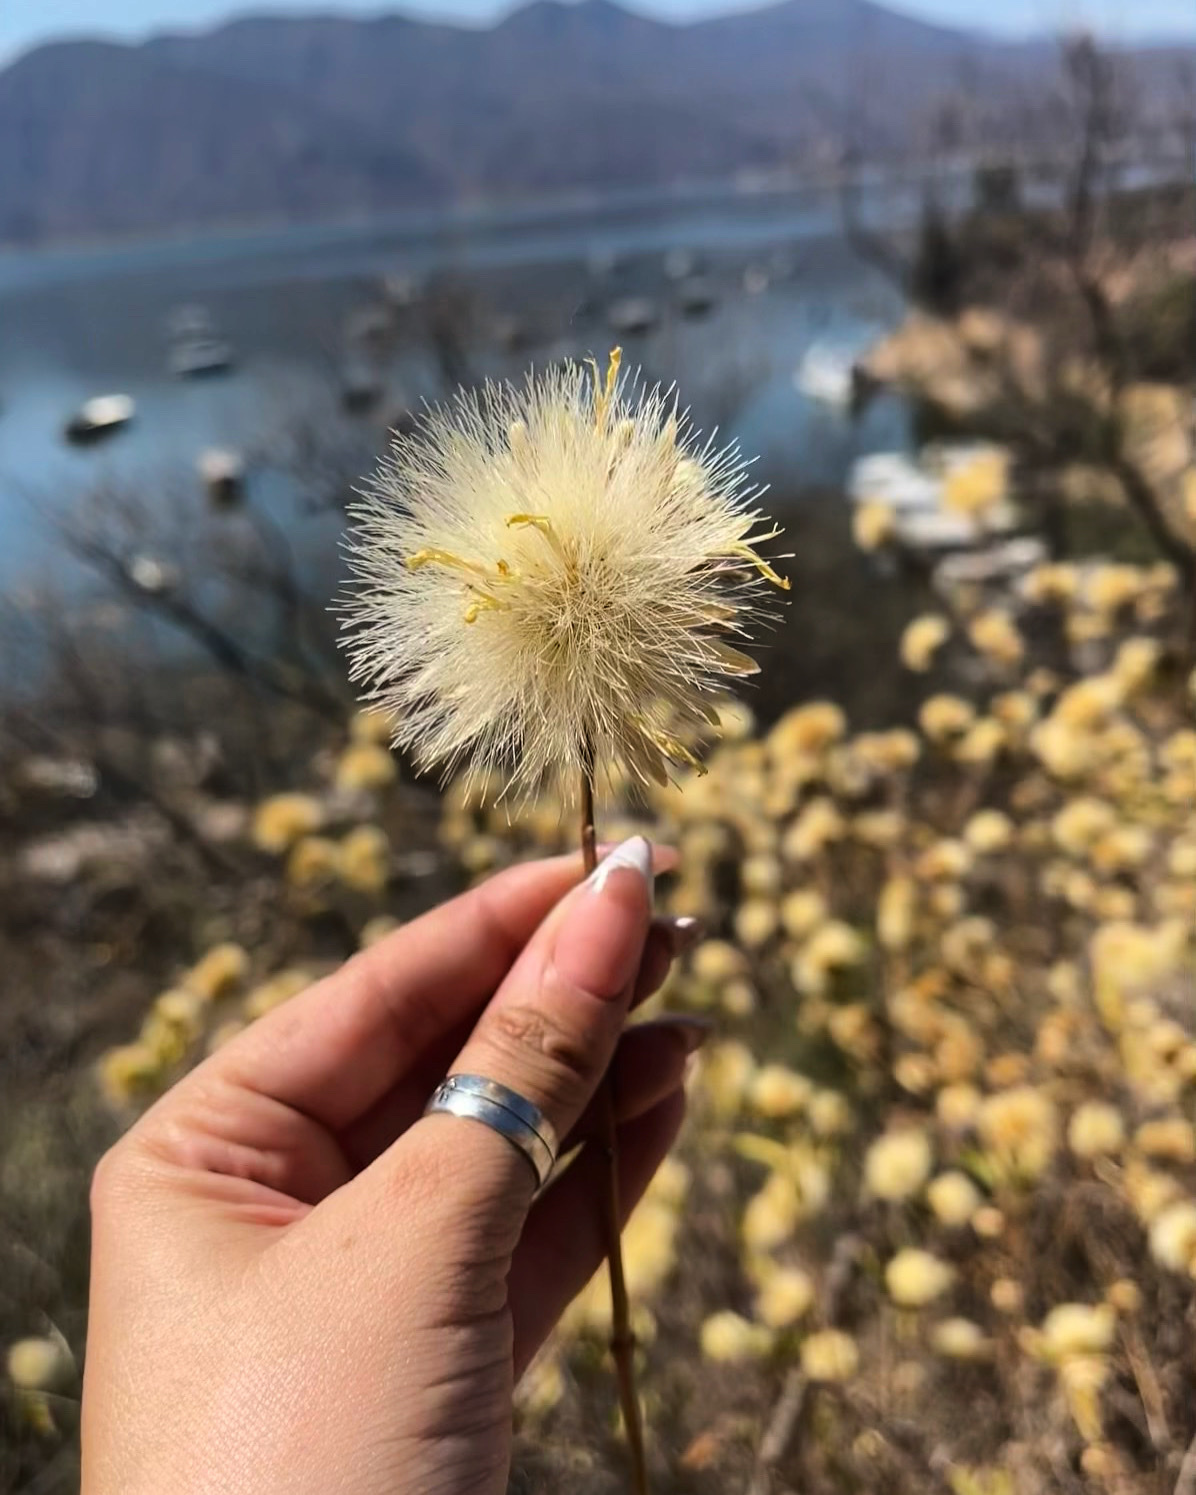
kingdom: Plantae
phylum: Tracheophyta
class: Magnoliopsida
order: Asterales
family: Asteraceae
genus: Hyaloseris
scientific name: Hyaloseris salicifolia
